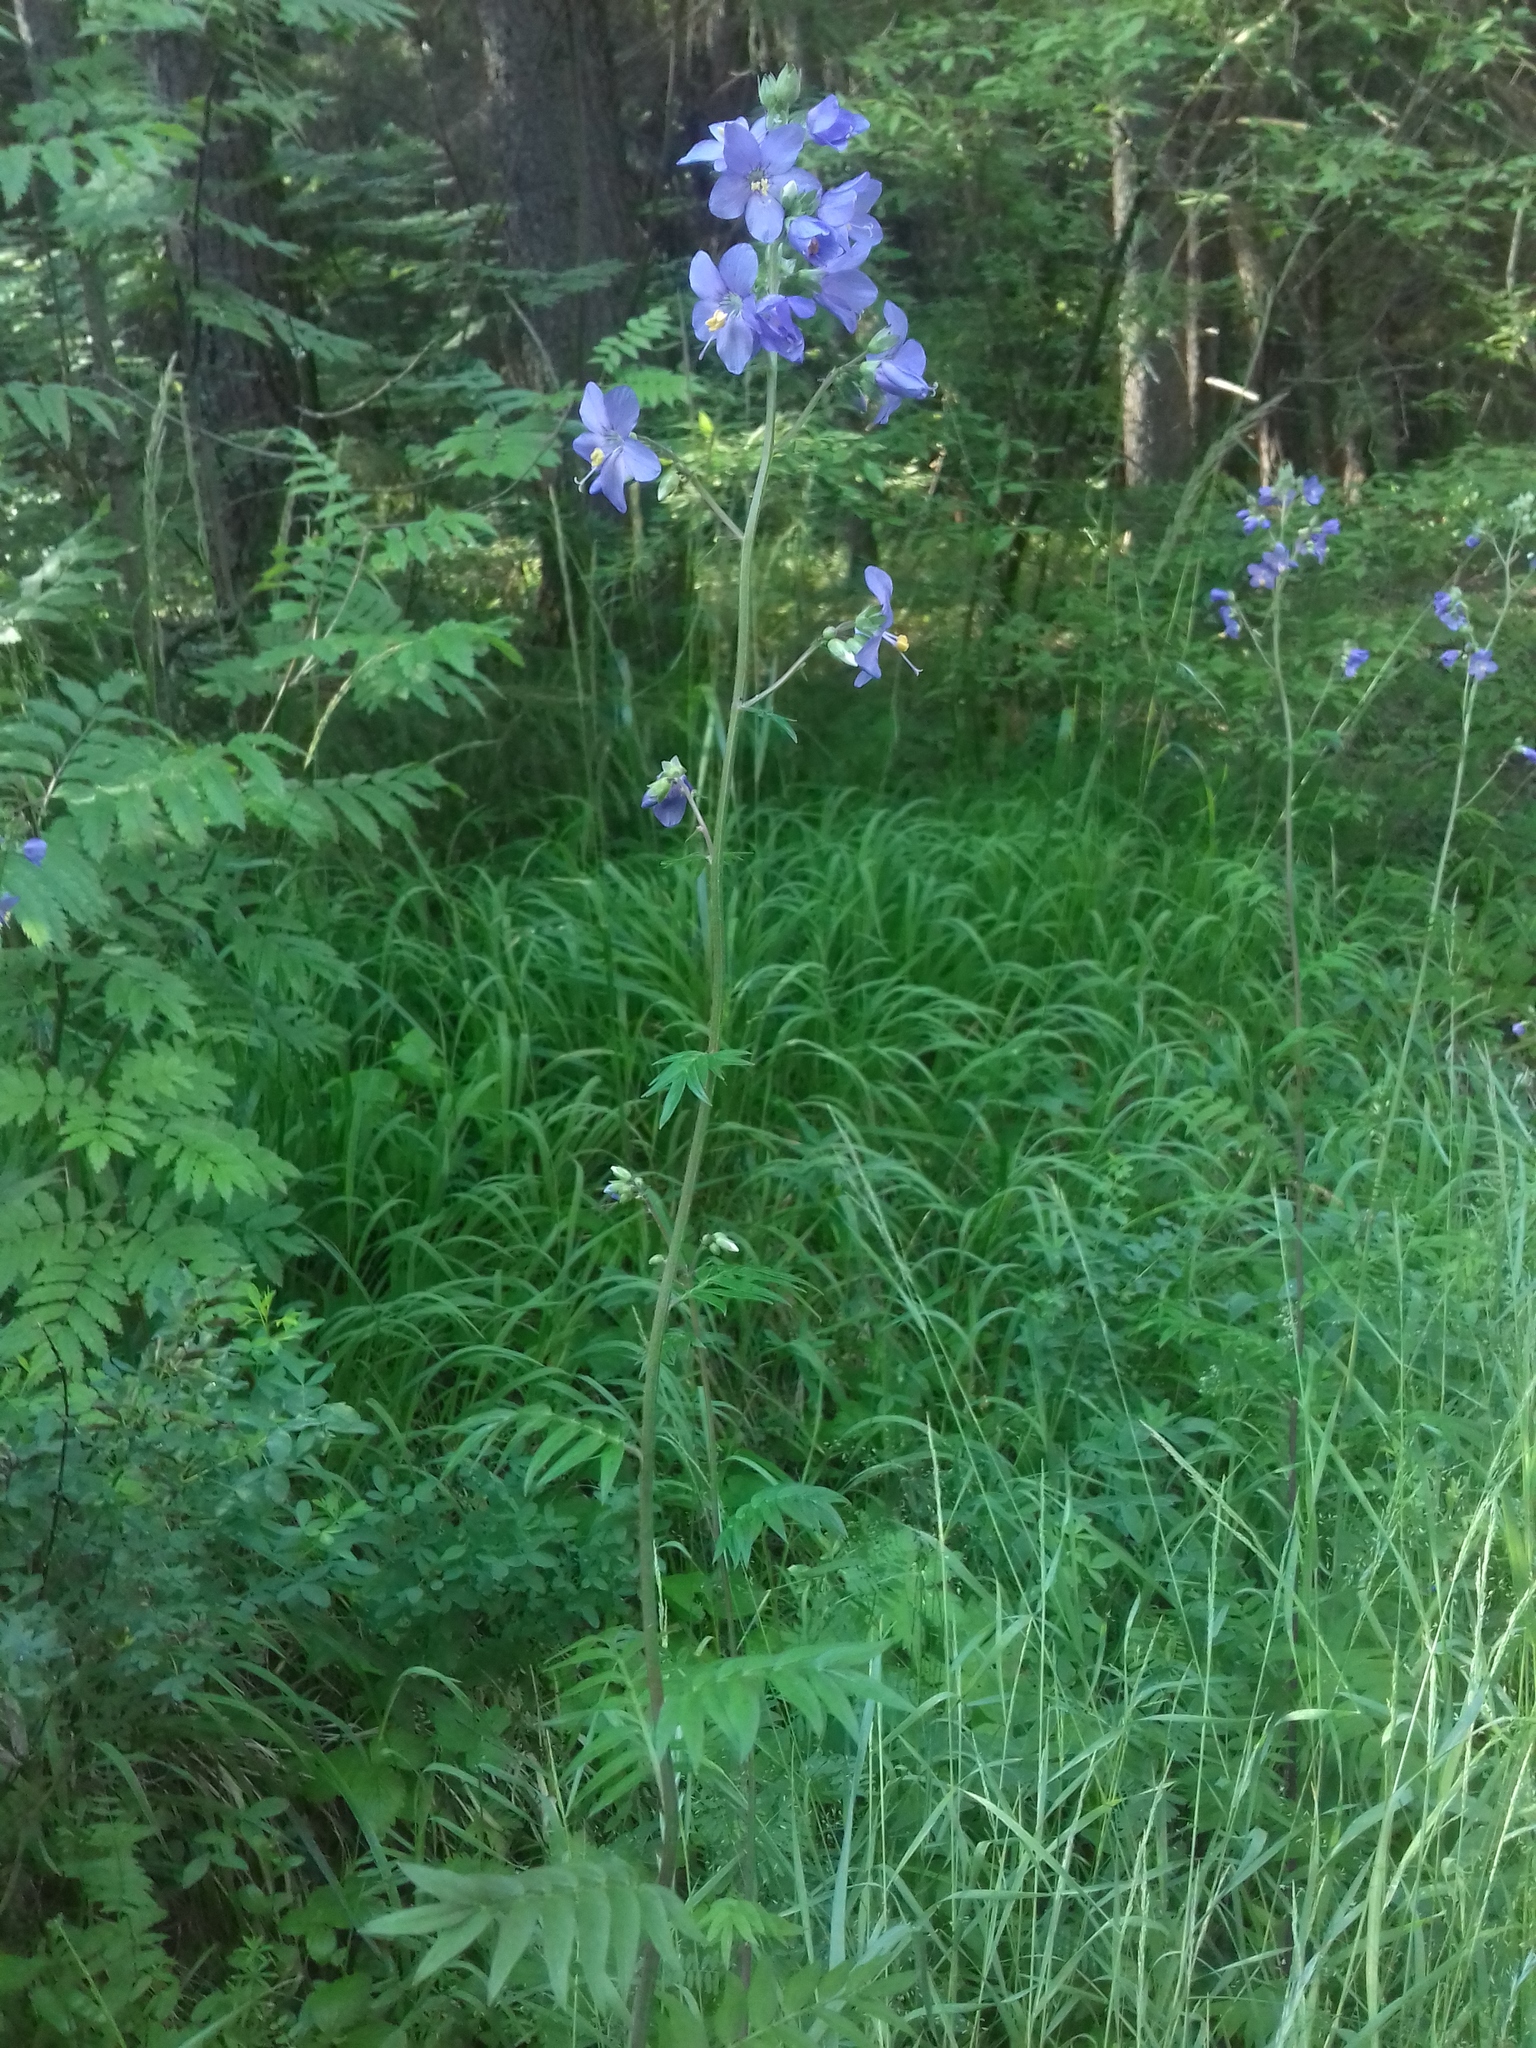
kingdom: Plantae
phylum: Tracheophyta
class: Magnoliopsida
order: Ericales
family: Polemoniaceae
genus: Polemonium
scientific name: Polemonium caeruleum
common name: Jacob's-ladder
